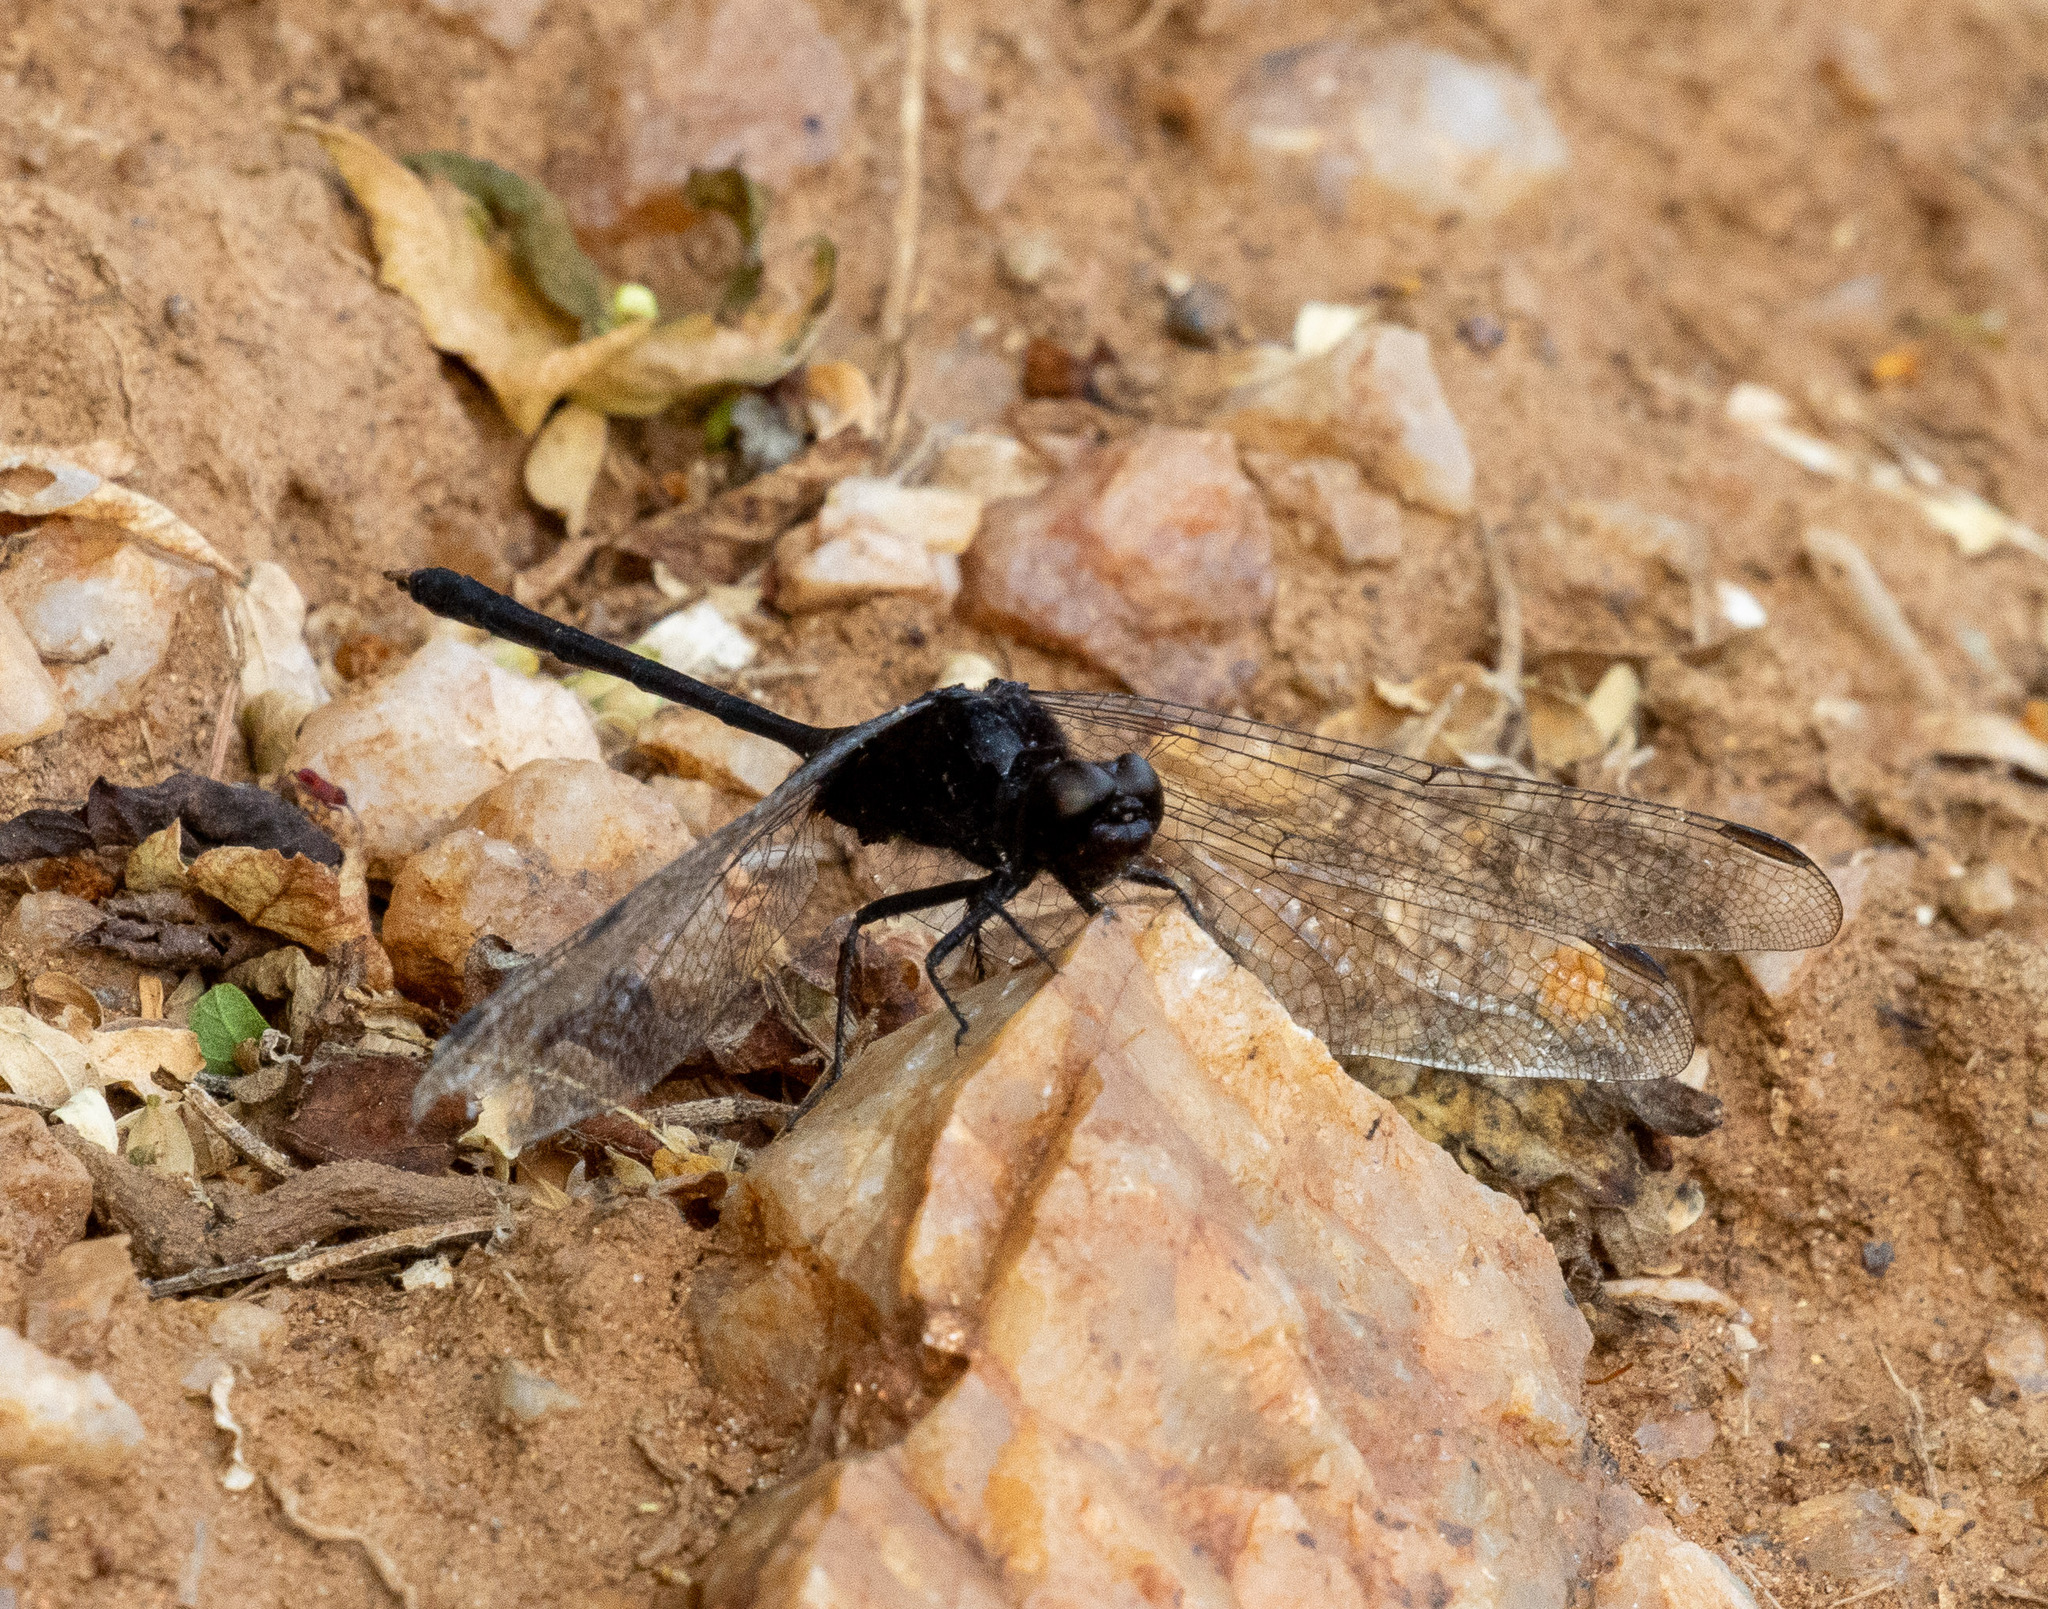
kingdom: Animalia
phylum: Arthropoda
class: Insecta
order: Odonata
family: Libellulidae
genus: Erythemis
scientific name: Erythemis plebeja
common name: Pin-tailed pondhawk
